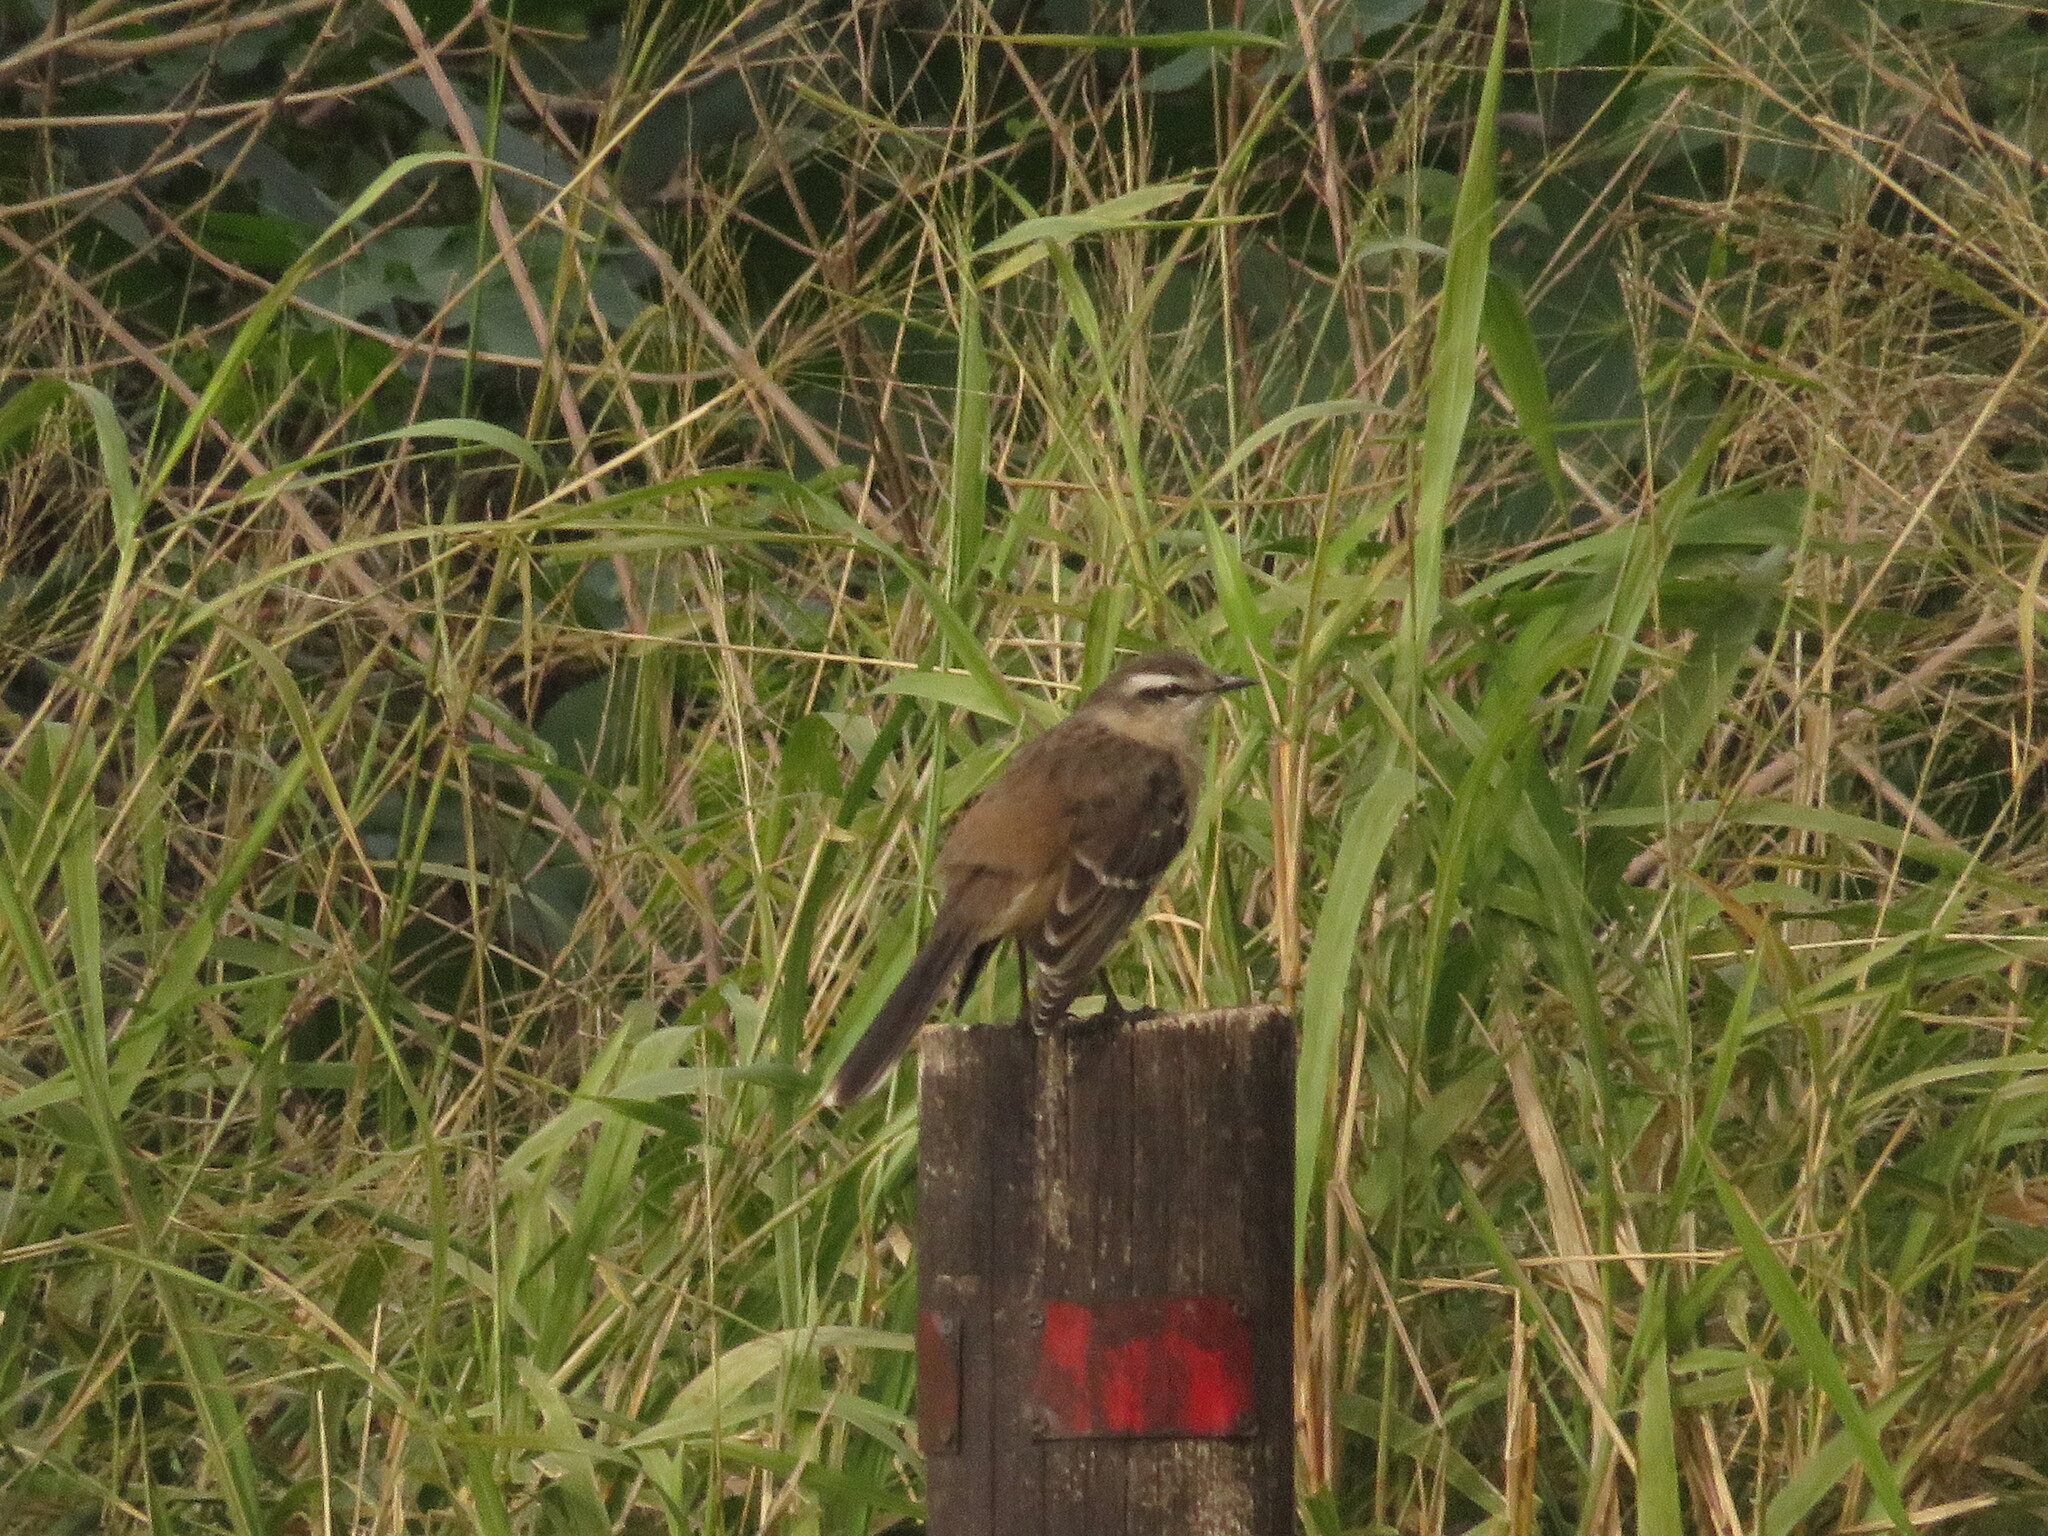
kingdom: Animalia
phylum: Chordata
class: Aves
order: Passeriformes
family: Mimidae
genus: Mimus
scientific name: Mimus saturninus
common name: Chalk-browed mockingbird
